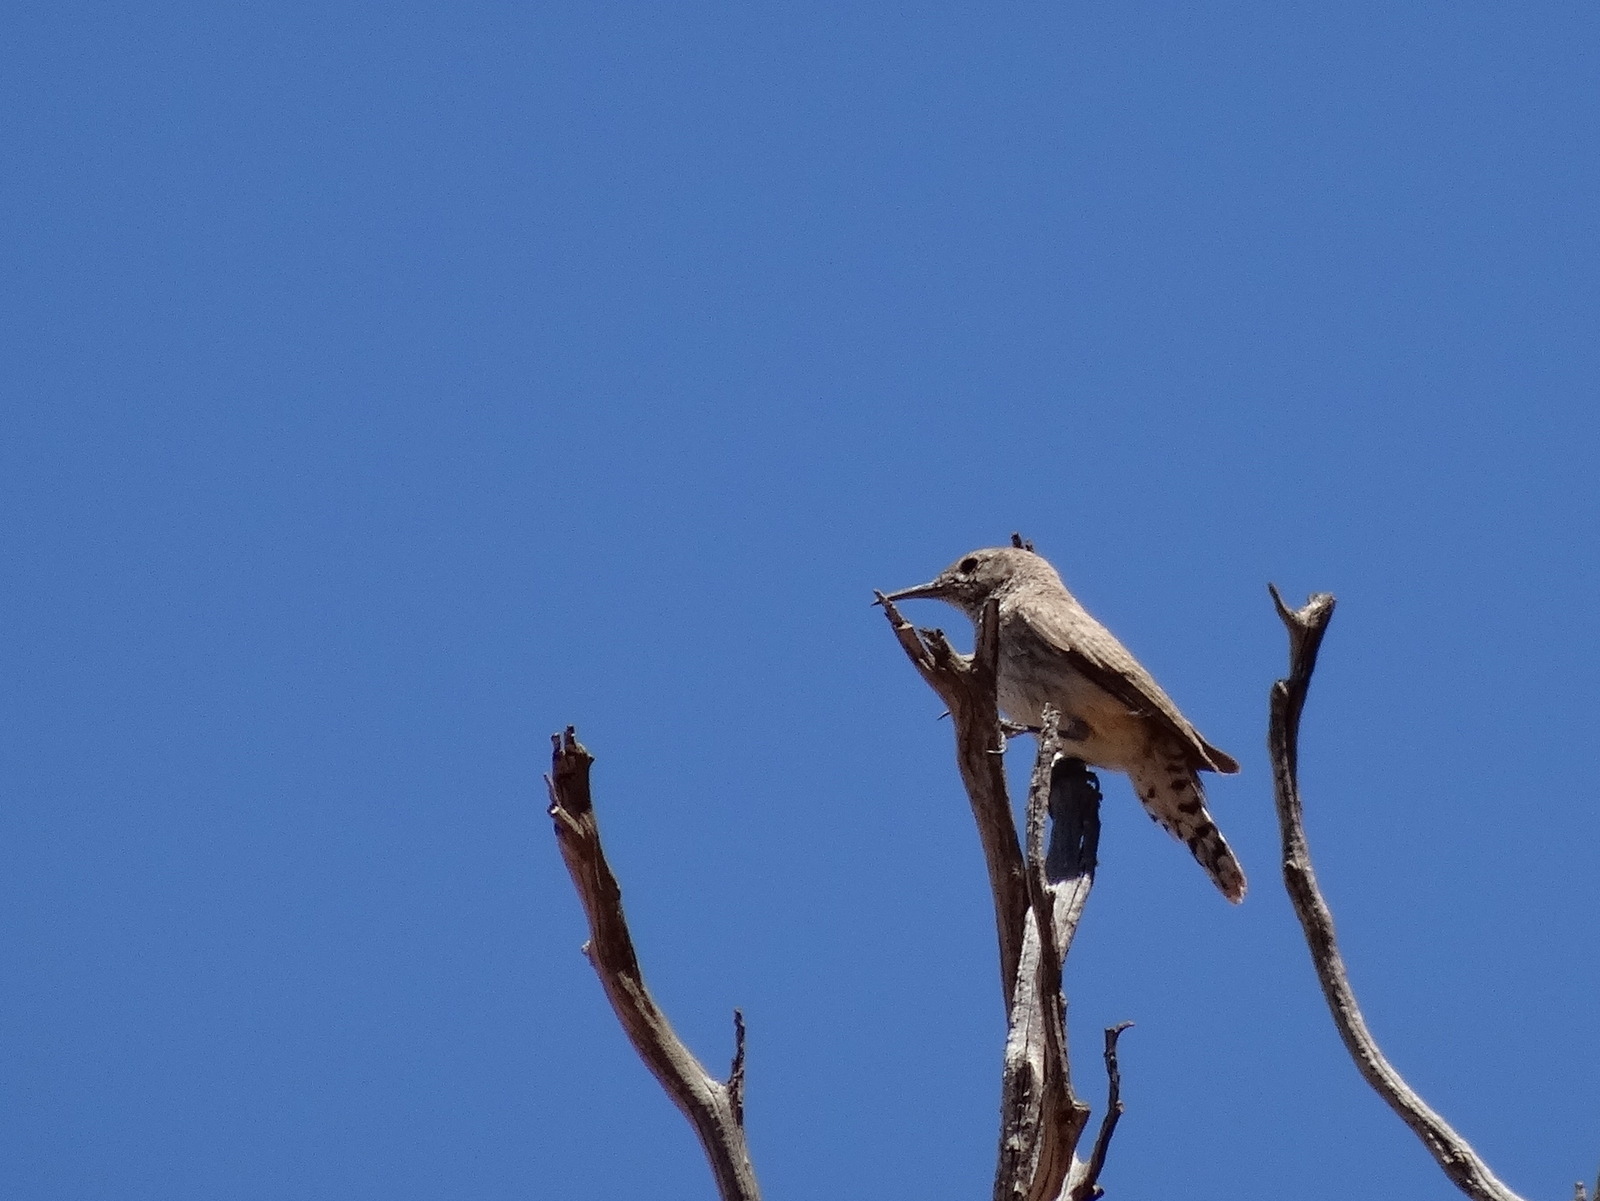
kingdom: Animalia
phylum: Chordata
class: Aves
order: Passeriformes
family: Troglodytidae
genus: Salpinctes
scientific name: Salpinctes obsoletus
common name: Rock wren
